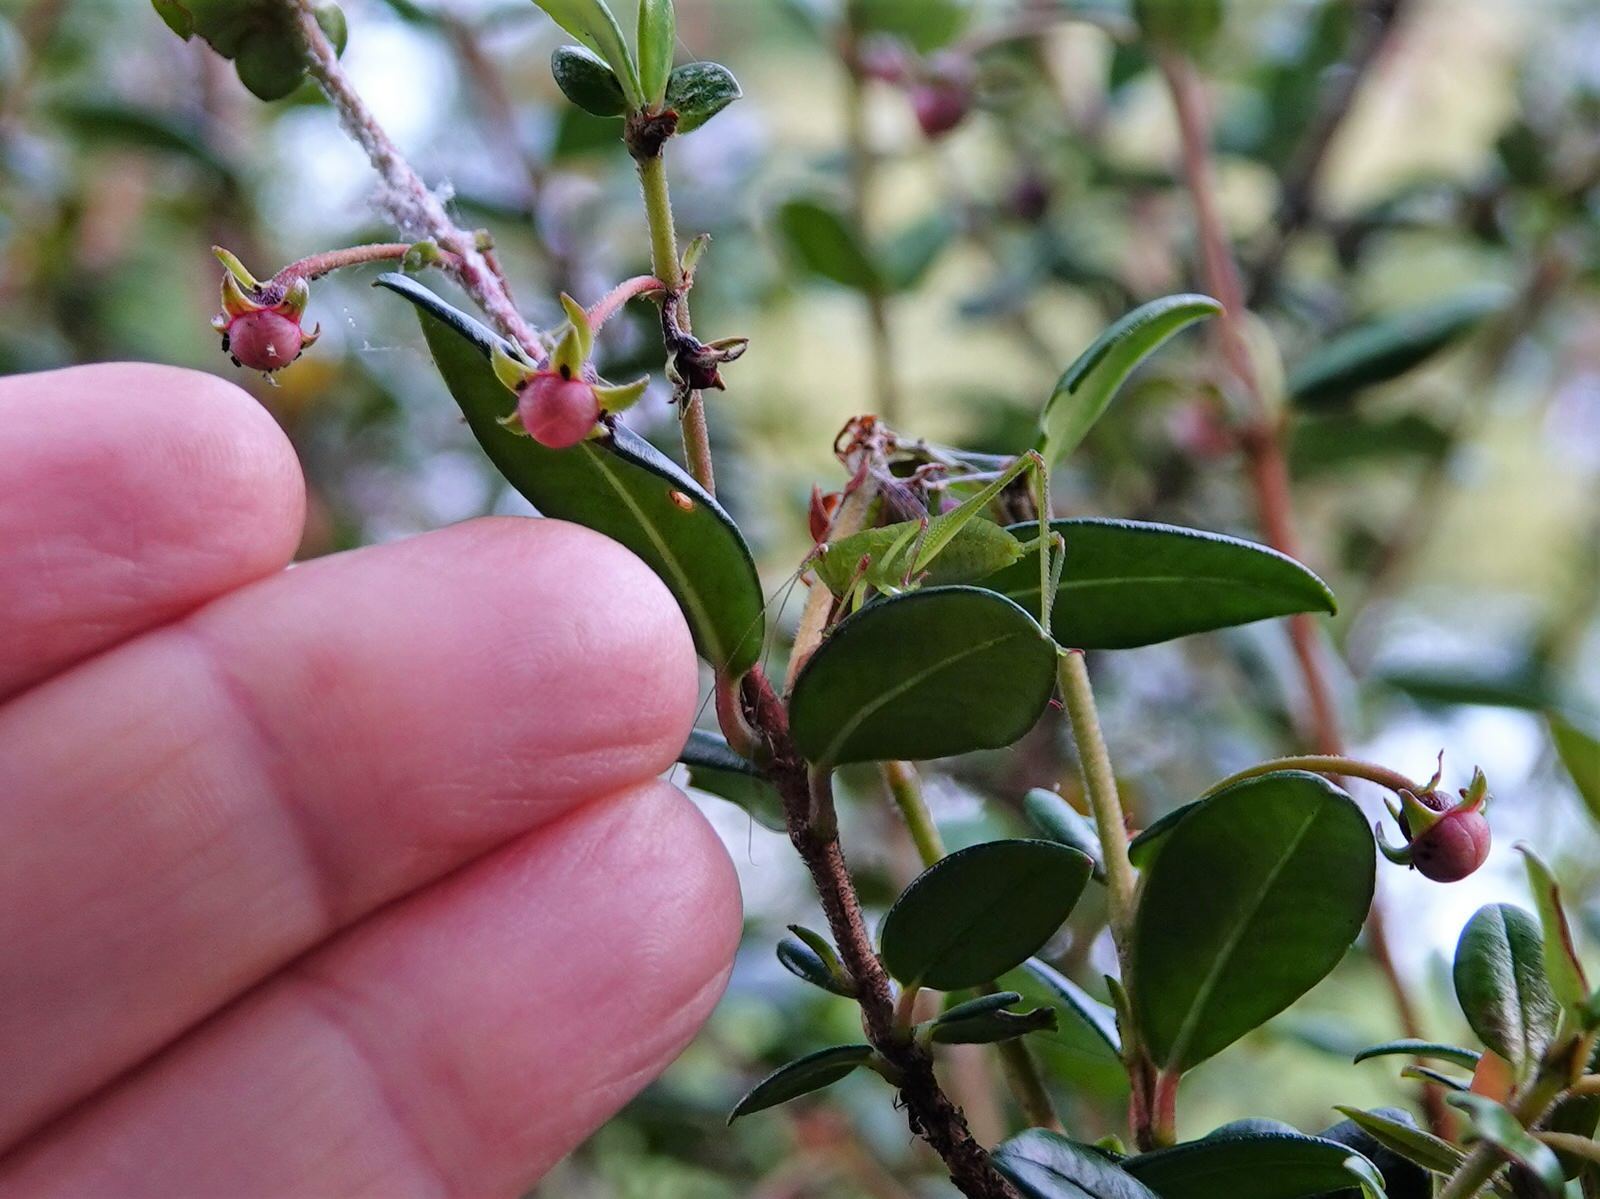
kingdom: Animalia
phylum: Arthropoda
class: Insecta
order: Orthoptera
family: Tettigoniidae
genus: Caedicia
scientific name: Caedicia simplex
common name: Common garden katydid
